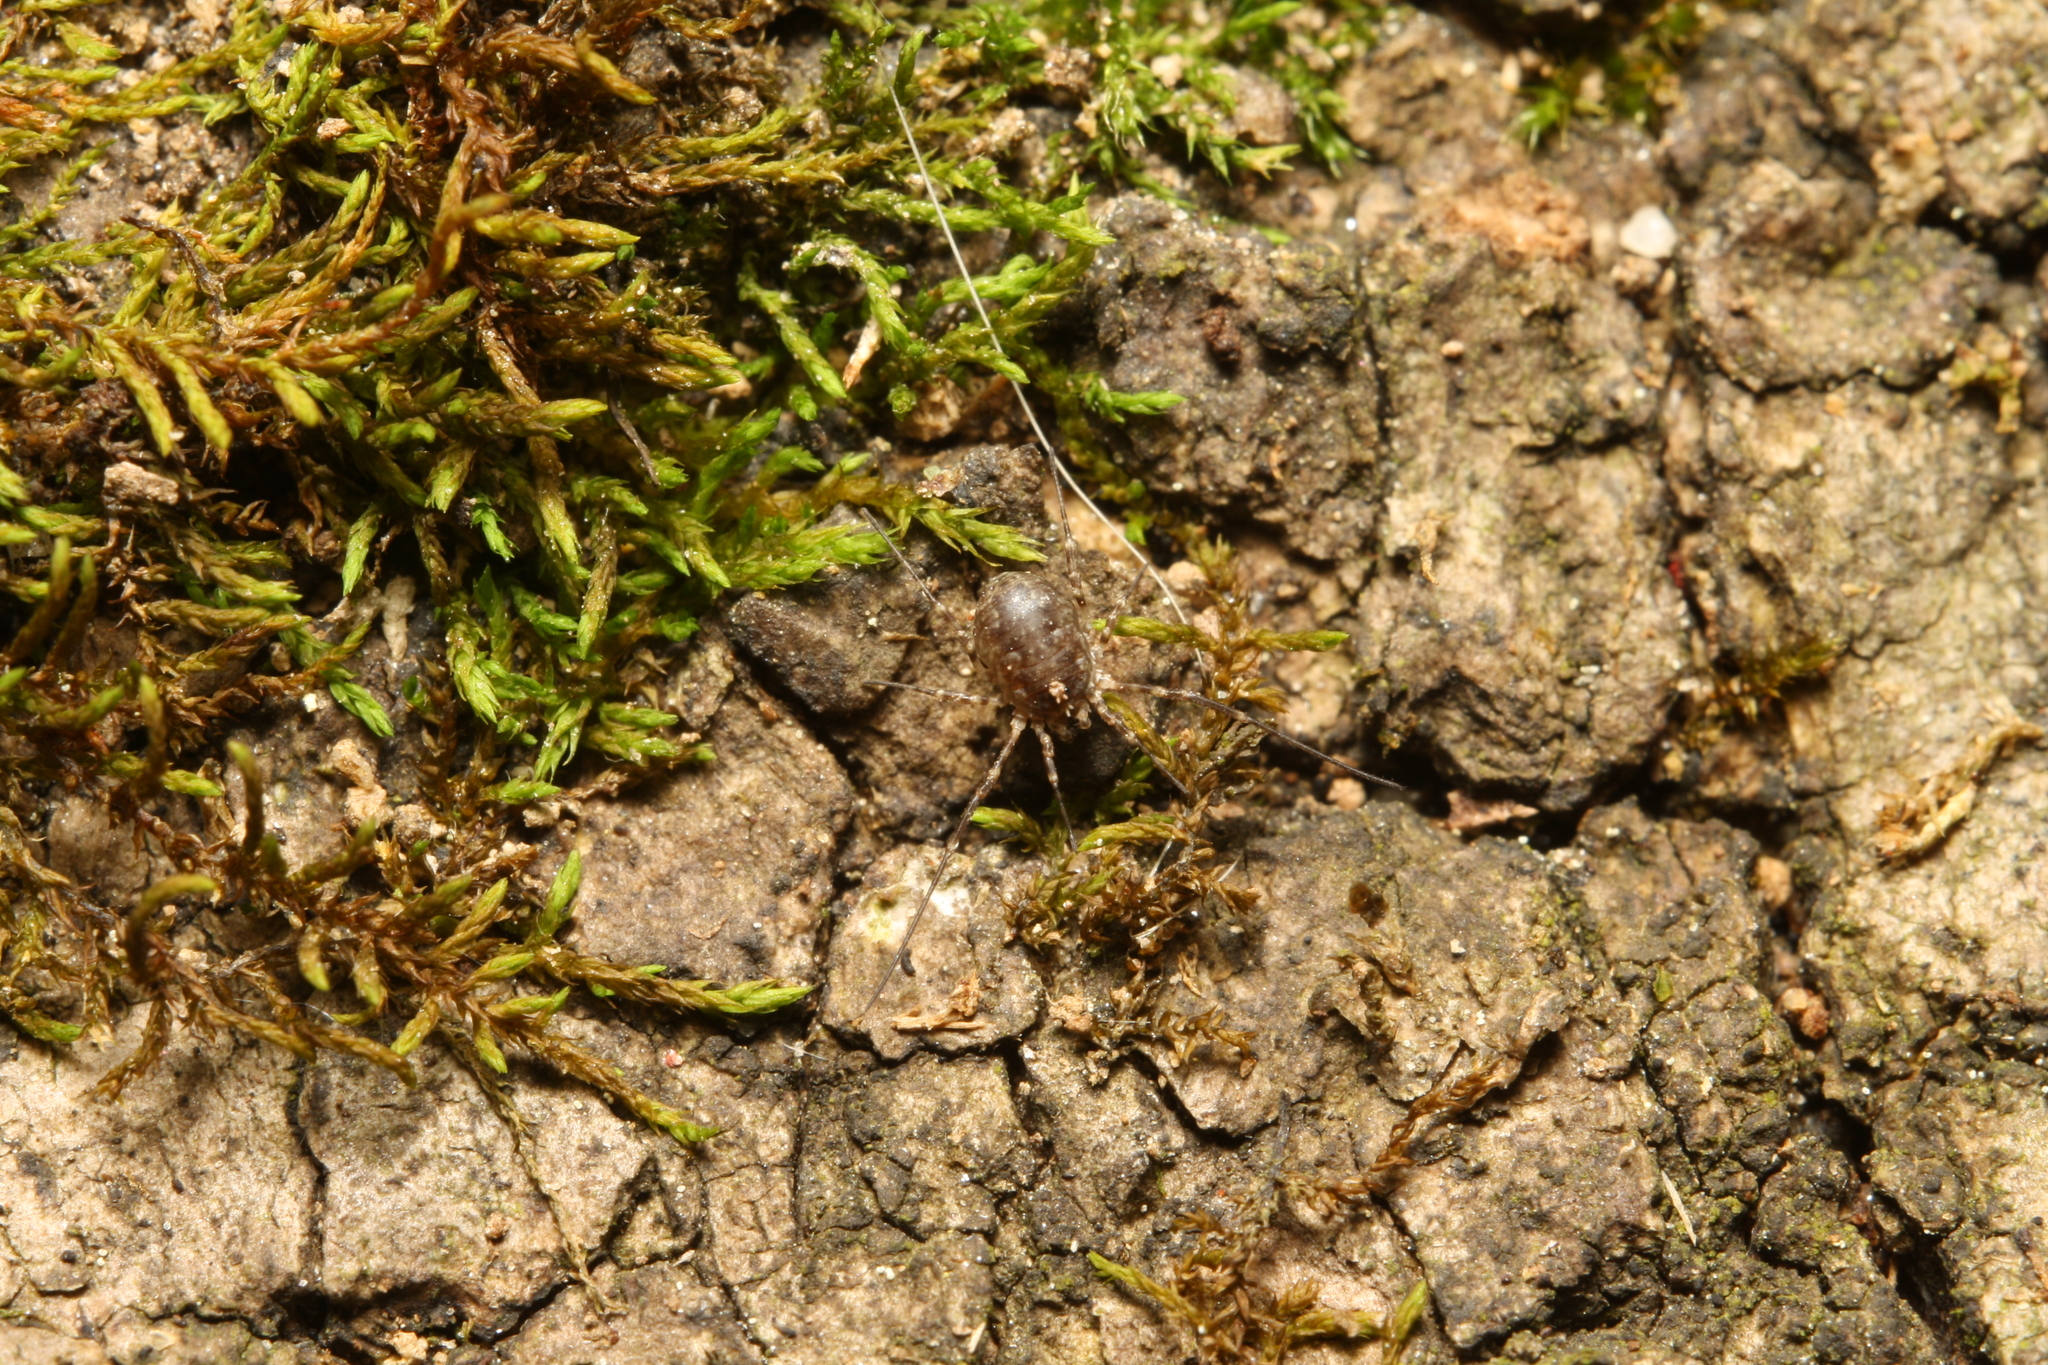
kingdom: Animalia
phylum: Arthropoda
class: Arachnida
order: Opiliones
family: Phalangiidae
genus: Lacinius
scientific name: Lacinius dentiger
